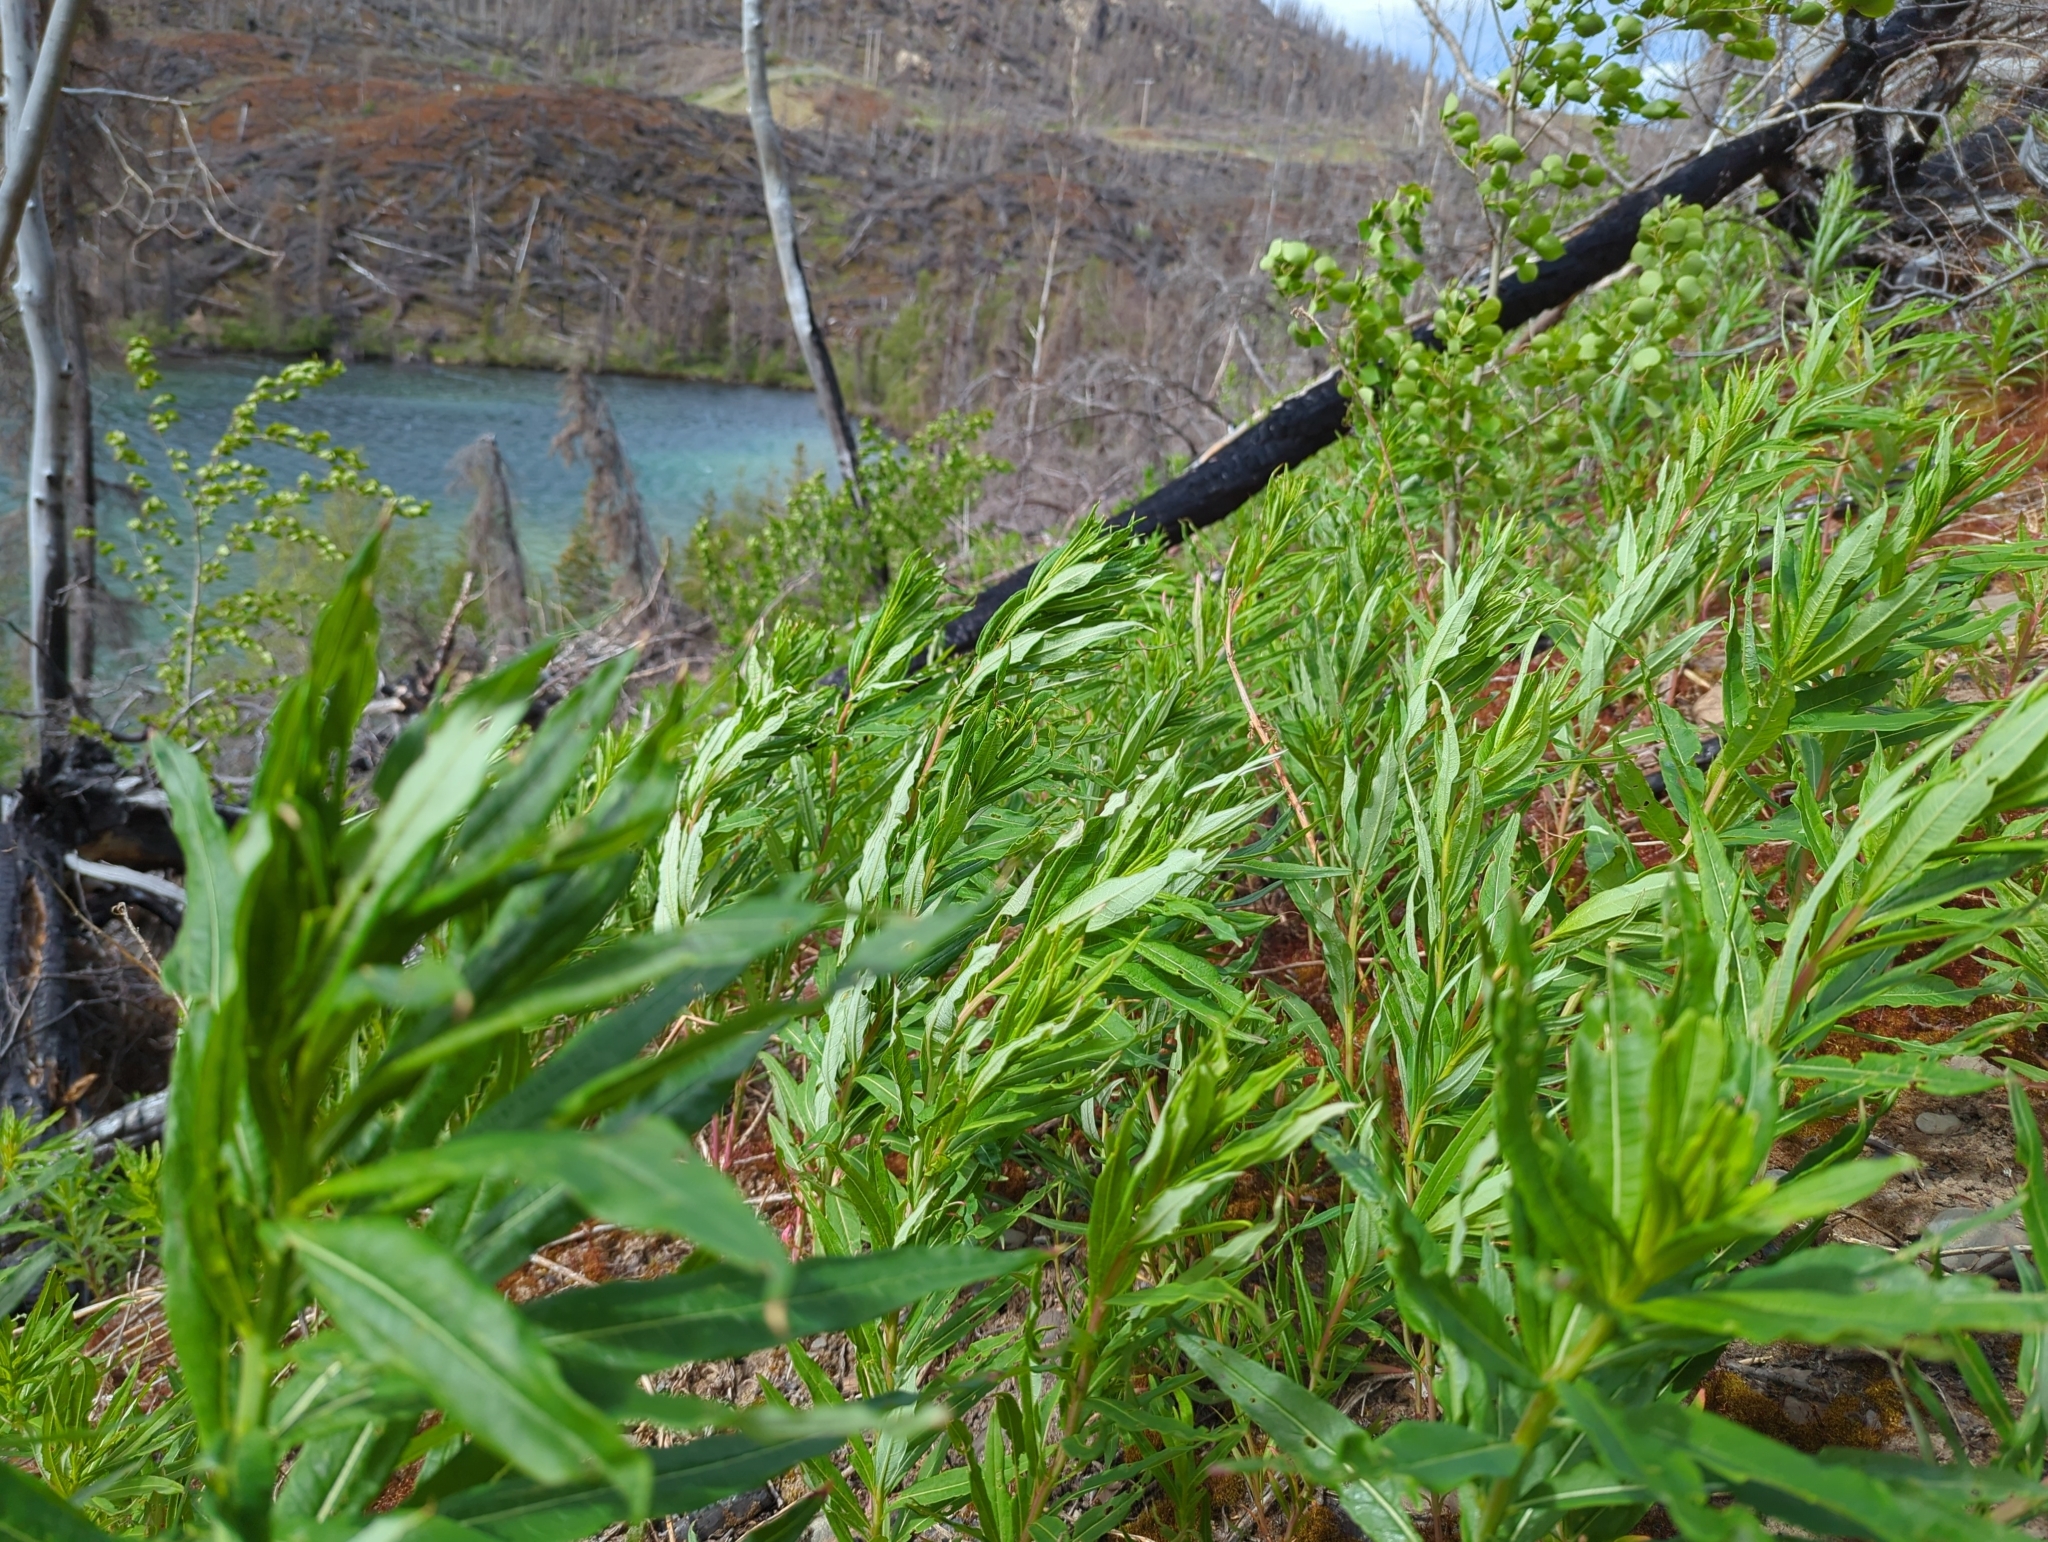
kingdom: Plantae
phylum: Tracheophyta
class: Magnoliopsida
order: Myrtales
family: Onagraceae
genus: Chamaenerion
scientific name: Chamaenerion angustifolium
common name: Fireweed
